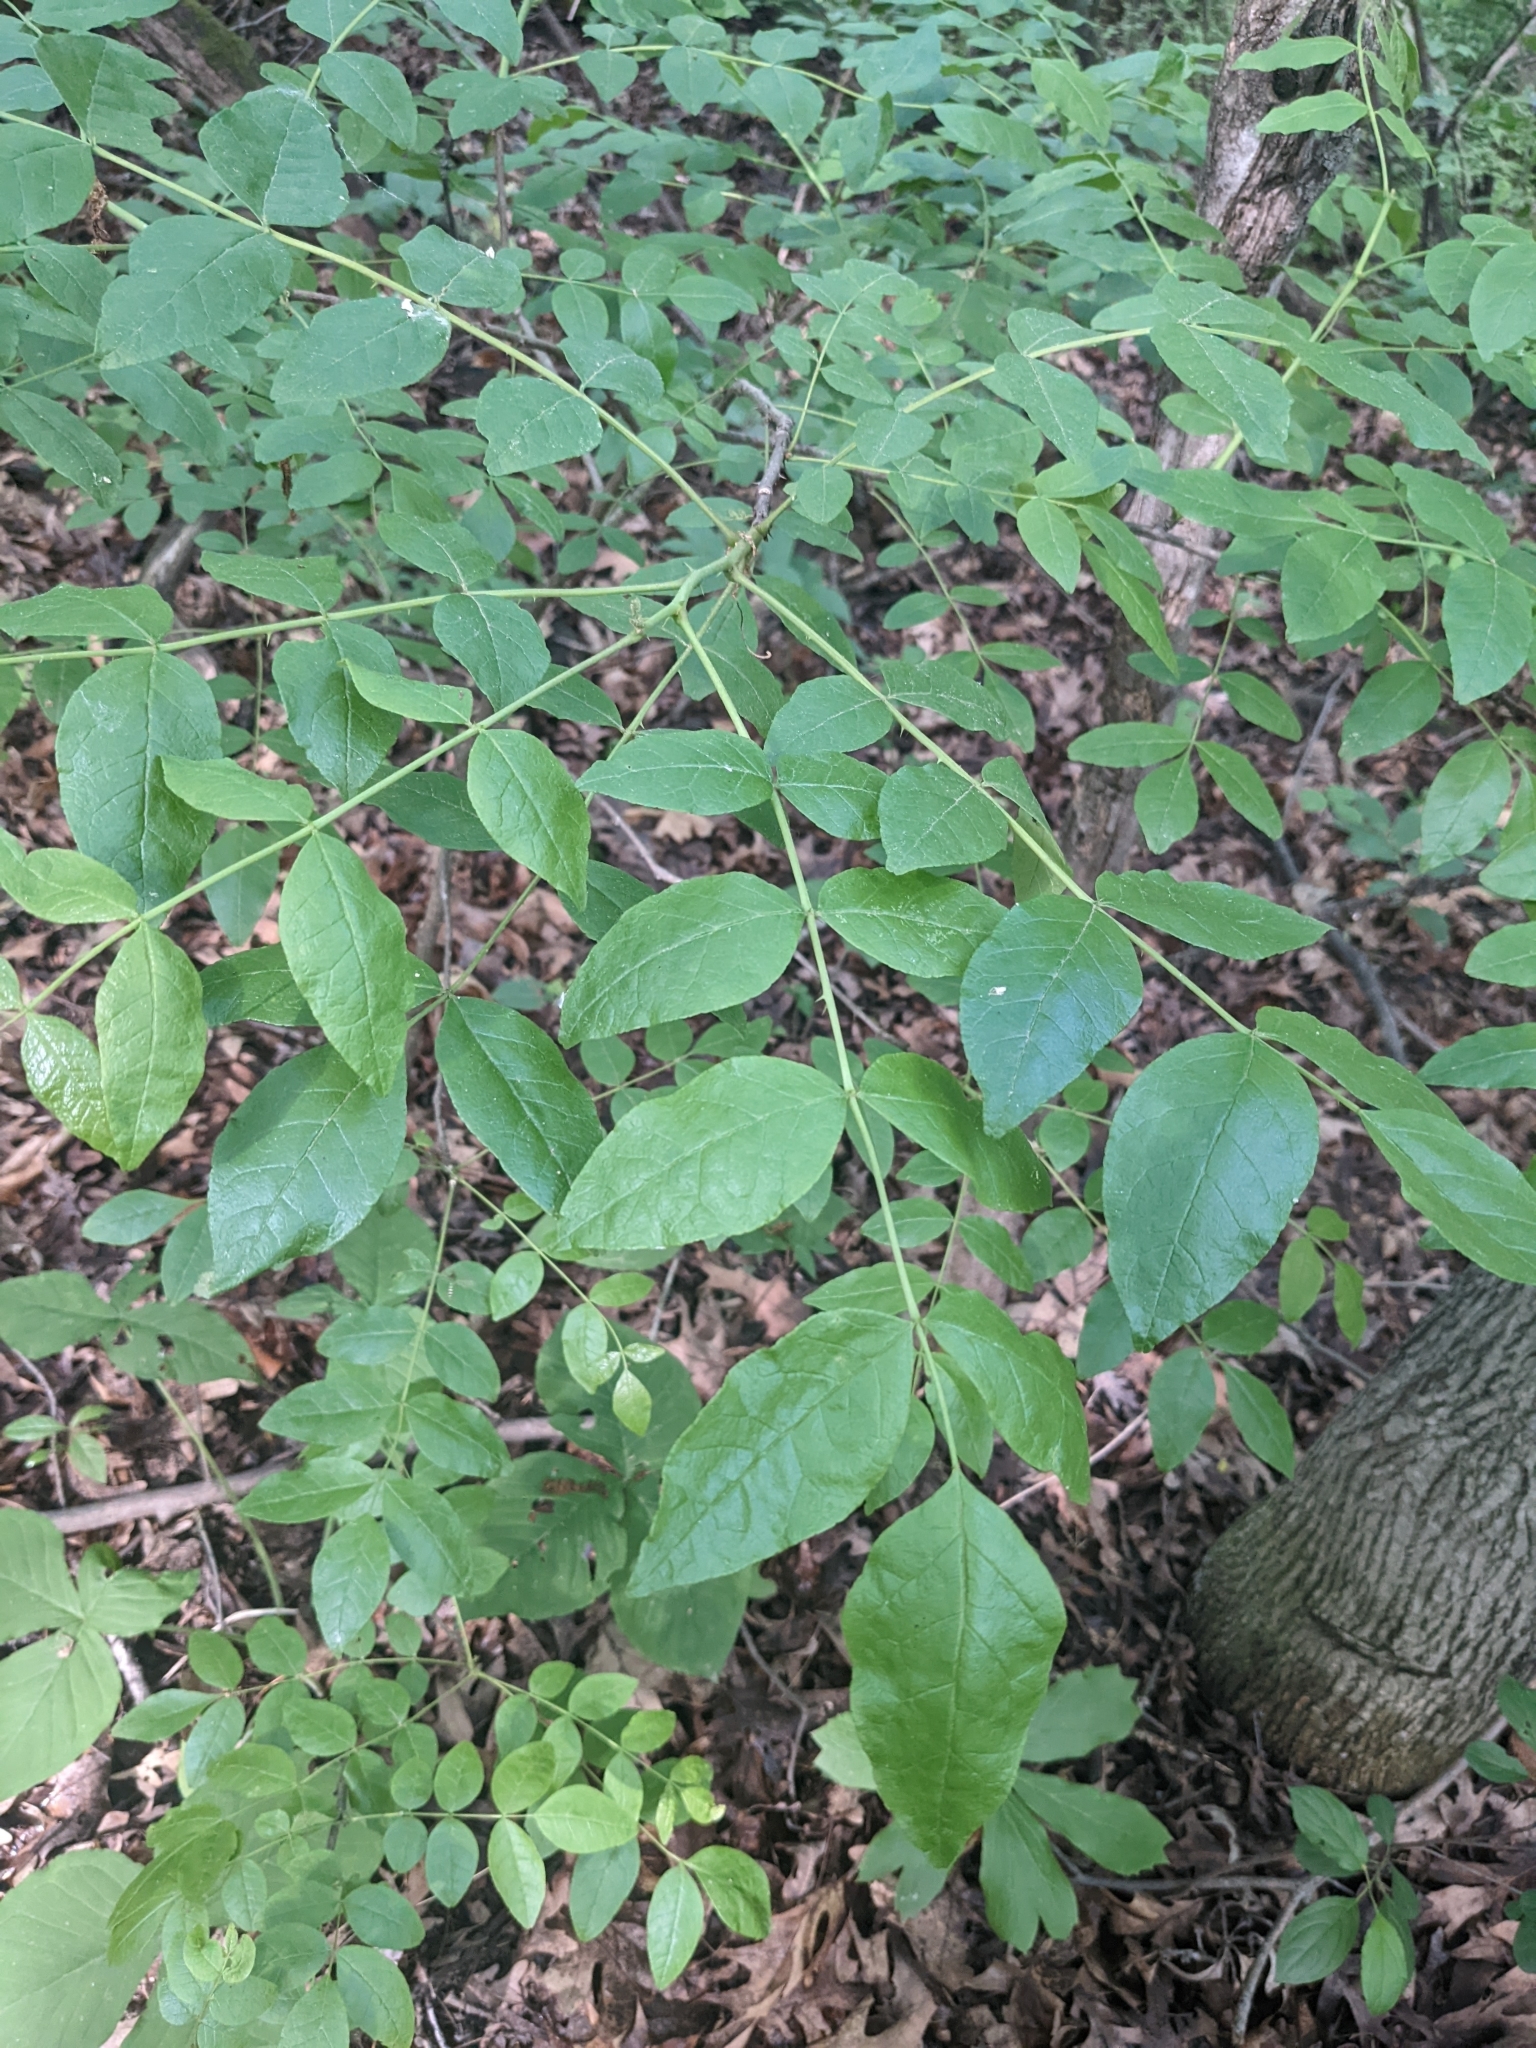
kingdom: Plantae
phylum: Tracheophyta
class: Magnoliopsida
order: Sapindales
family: Rutaceae
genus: Zanthoxylum
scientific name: Zanthoxylum americanum
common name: Northern prickly-ash
